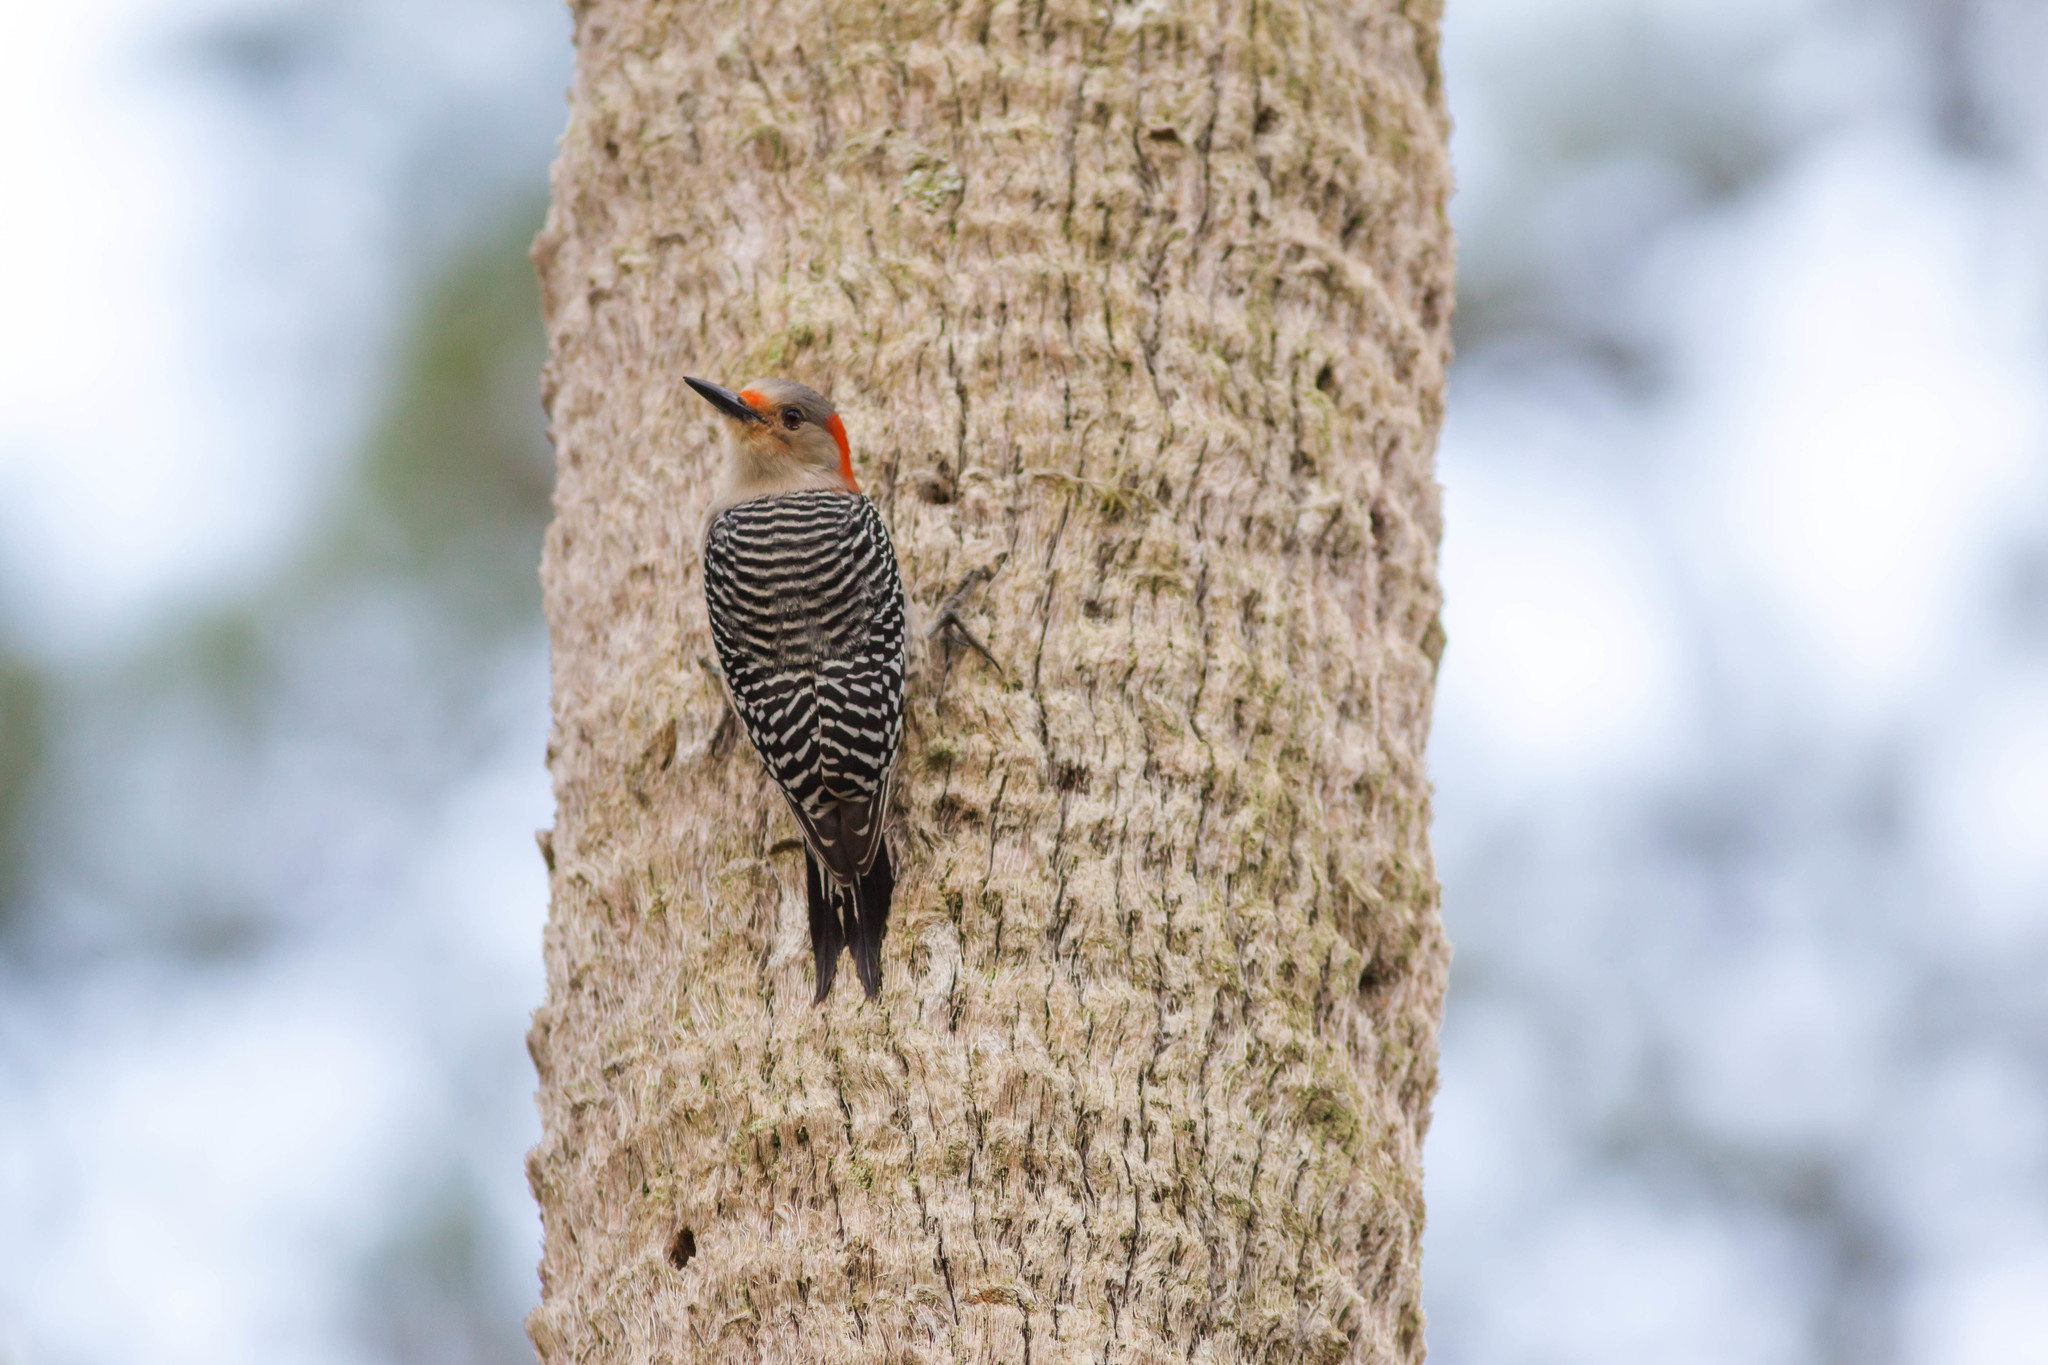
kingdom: Animalia
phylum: Chordata
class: Aves
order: Piciformes
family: Picidae
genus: Melanerpes
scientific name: Melanerpes carolinus
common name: Red-bellied woodpecker
